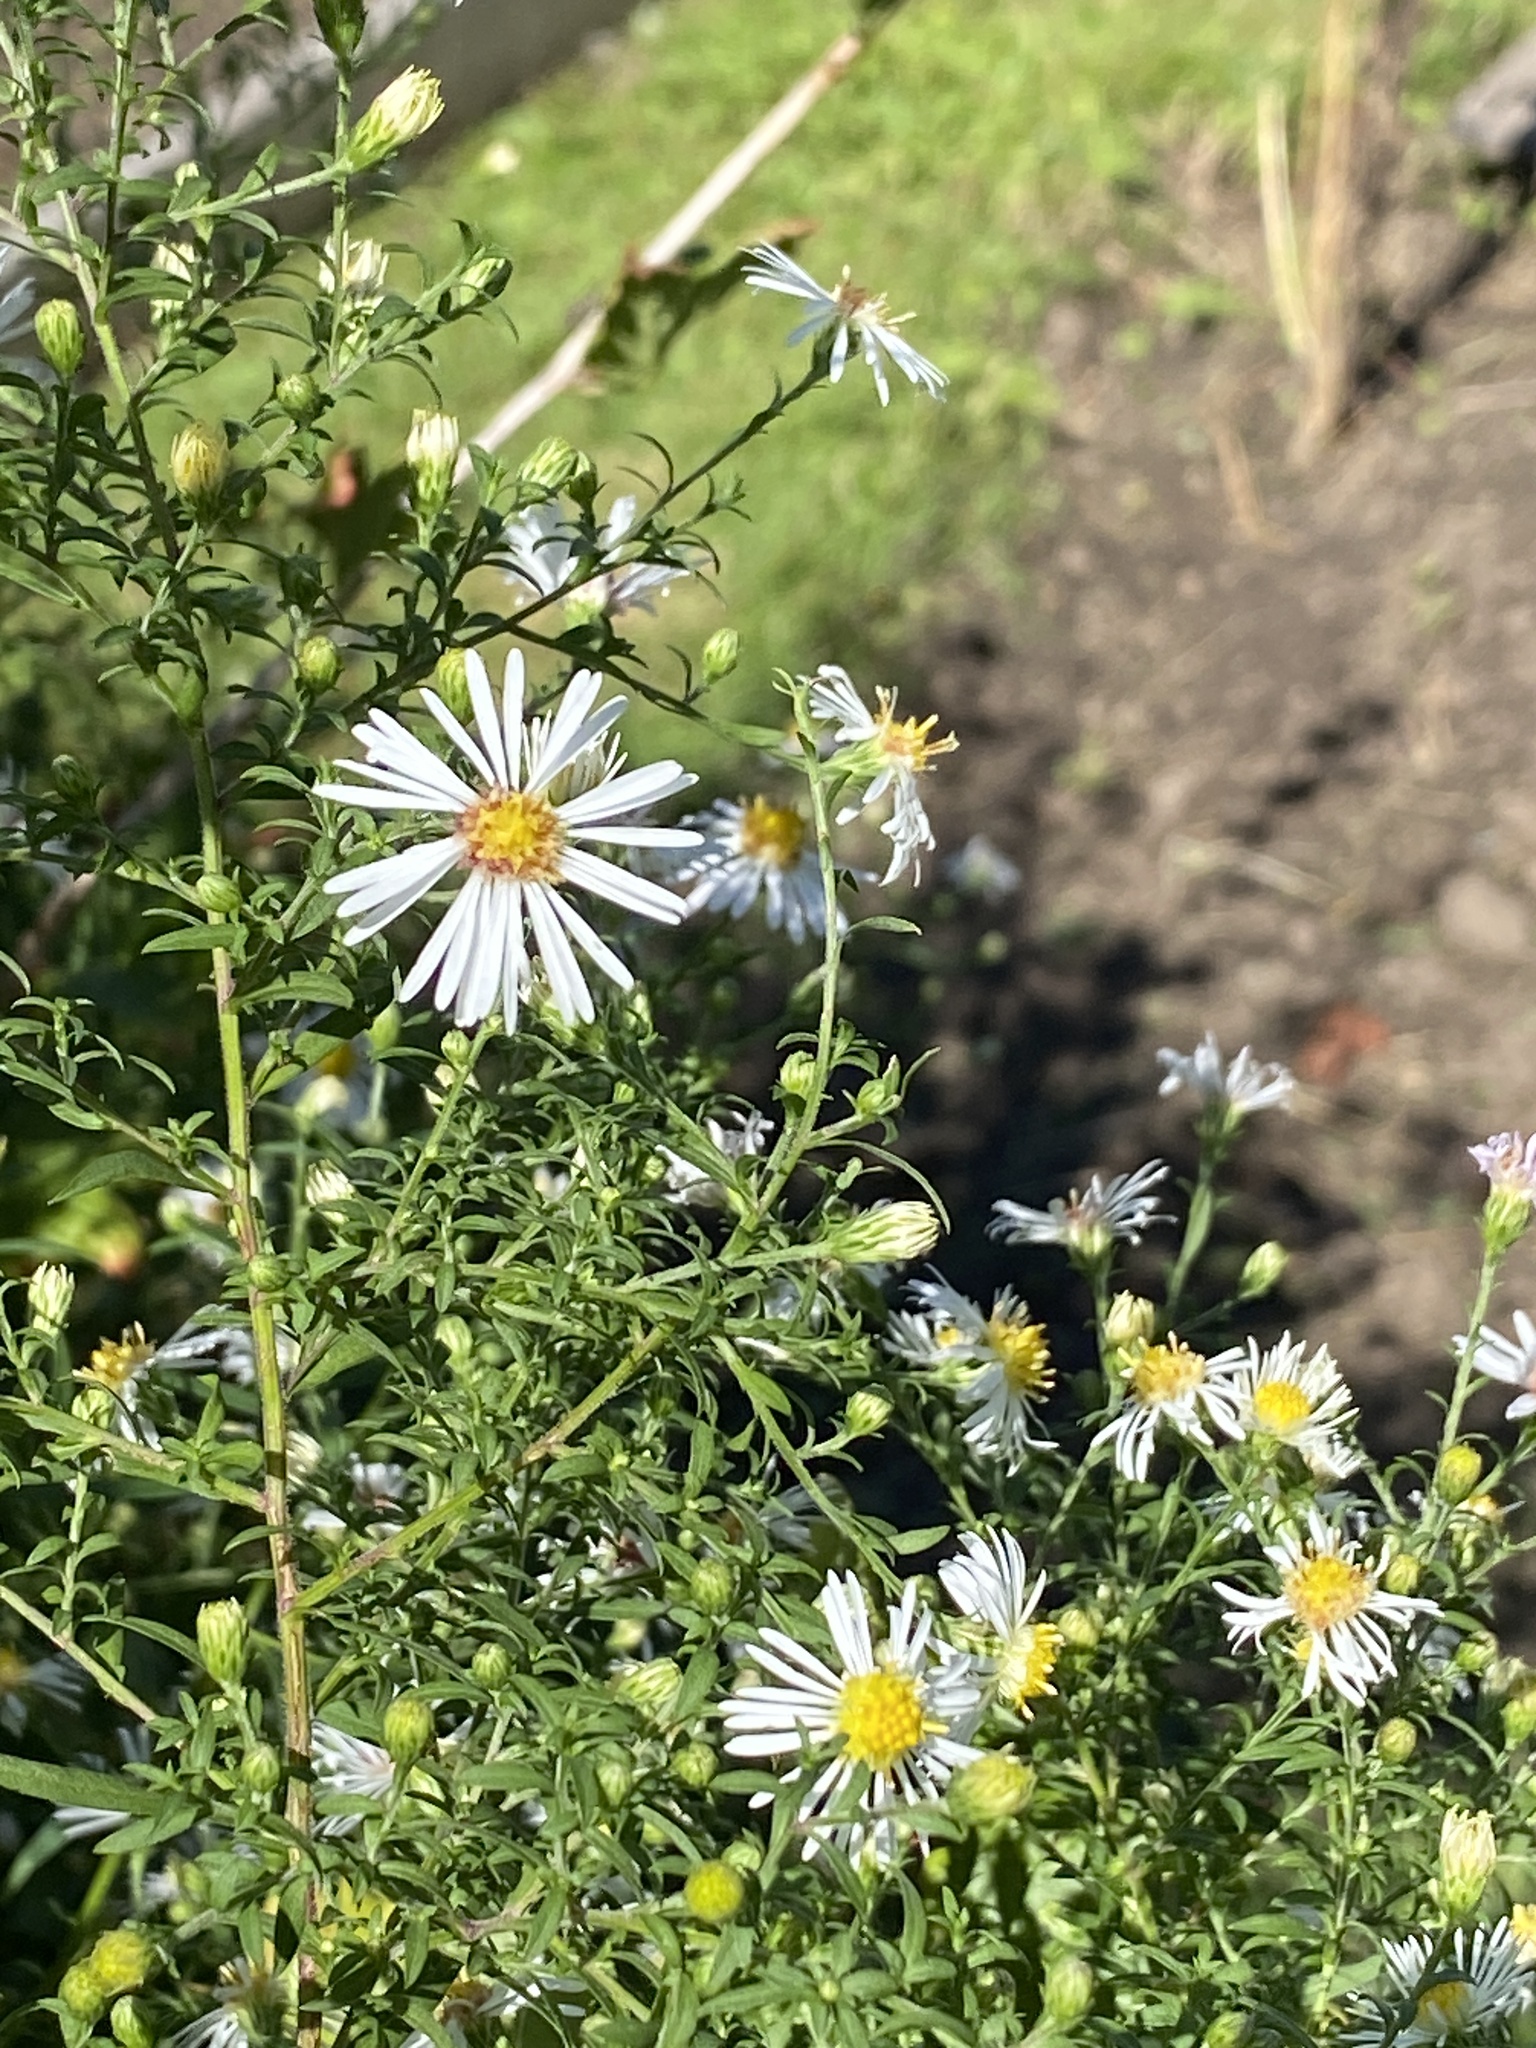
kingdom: Plantae
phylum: Tracheophyta
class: Magnoliopsida
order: Asterales
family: Asteraceae
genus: Symphyotrichum
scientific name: Symphyotrichum lanceolatum
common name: Panicled aster
